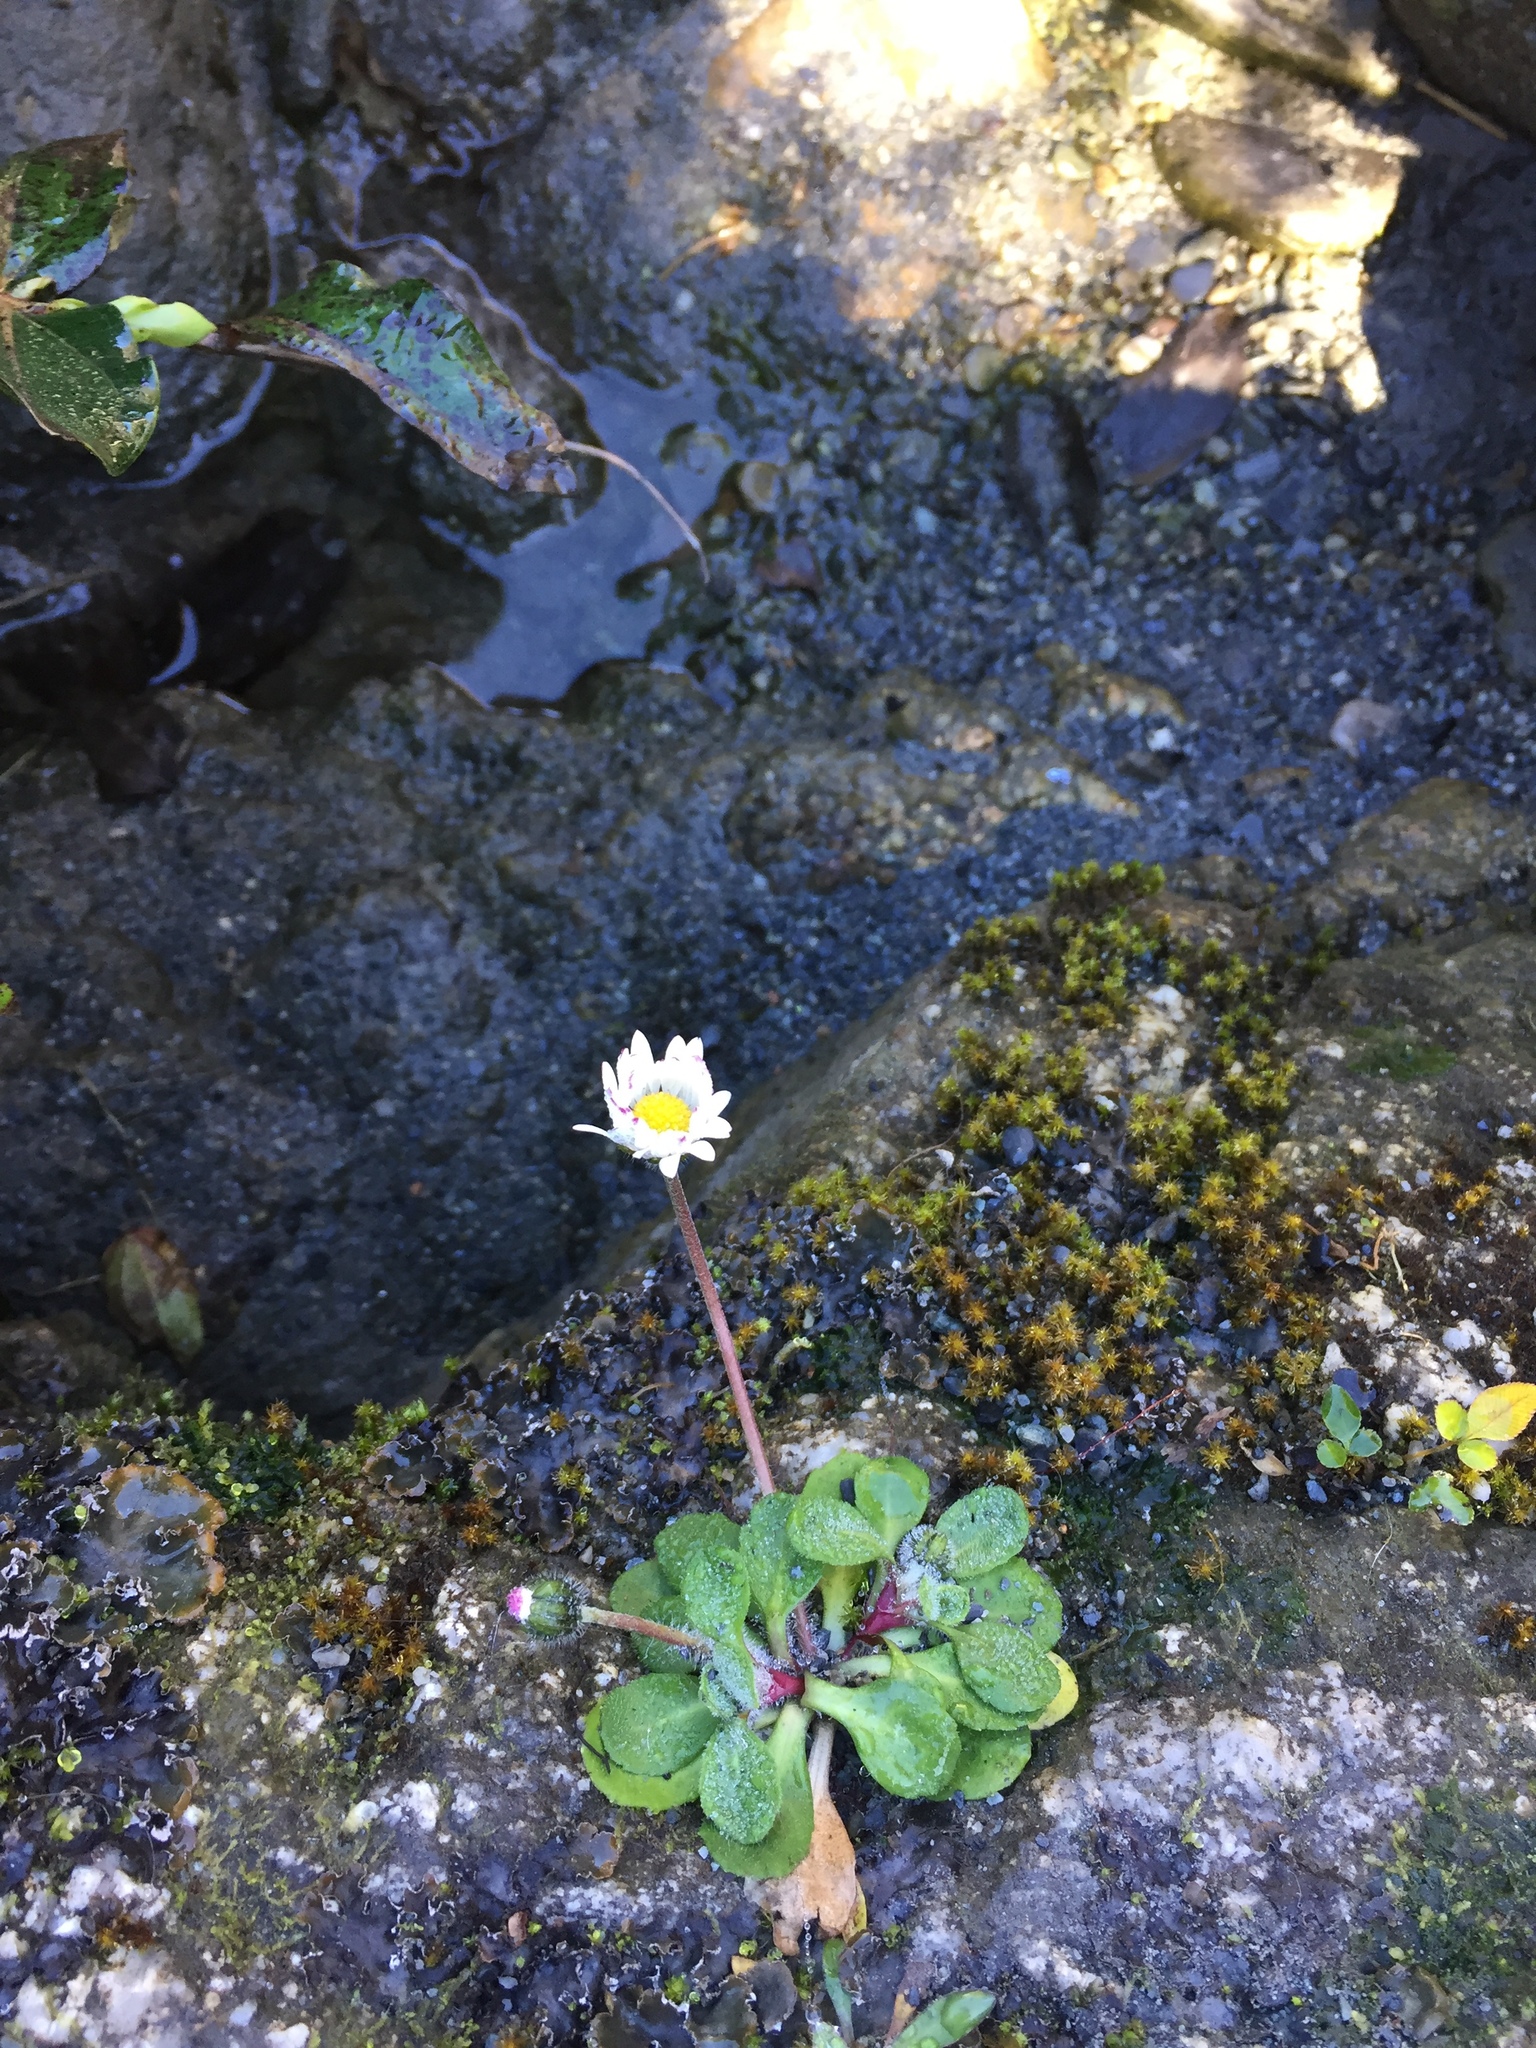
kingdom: Plantae
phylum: Tracheophyta
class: Magnoliopsida
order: Asterales
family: Asteraceae
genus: Bellis
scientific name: Bellis perennis
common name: Lawndaisy
